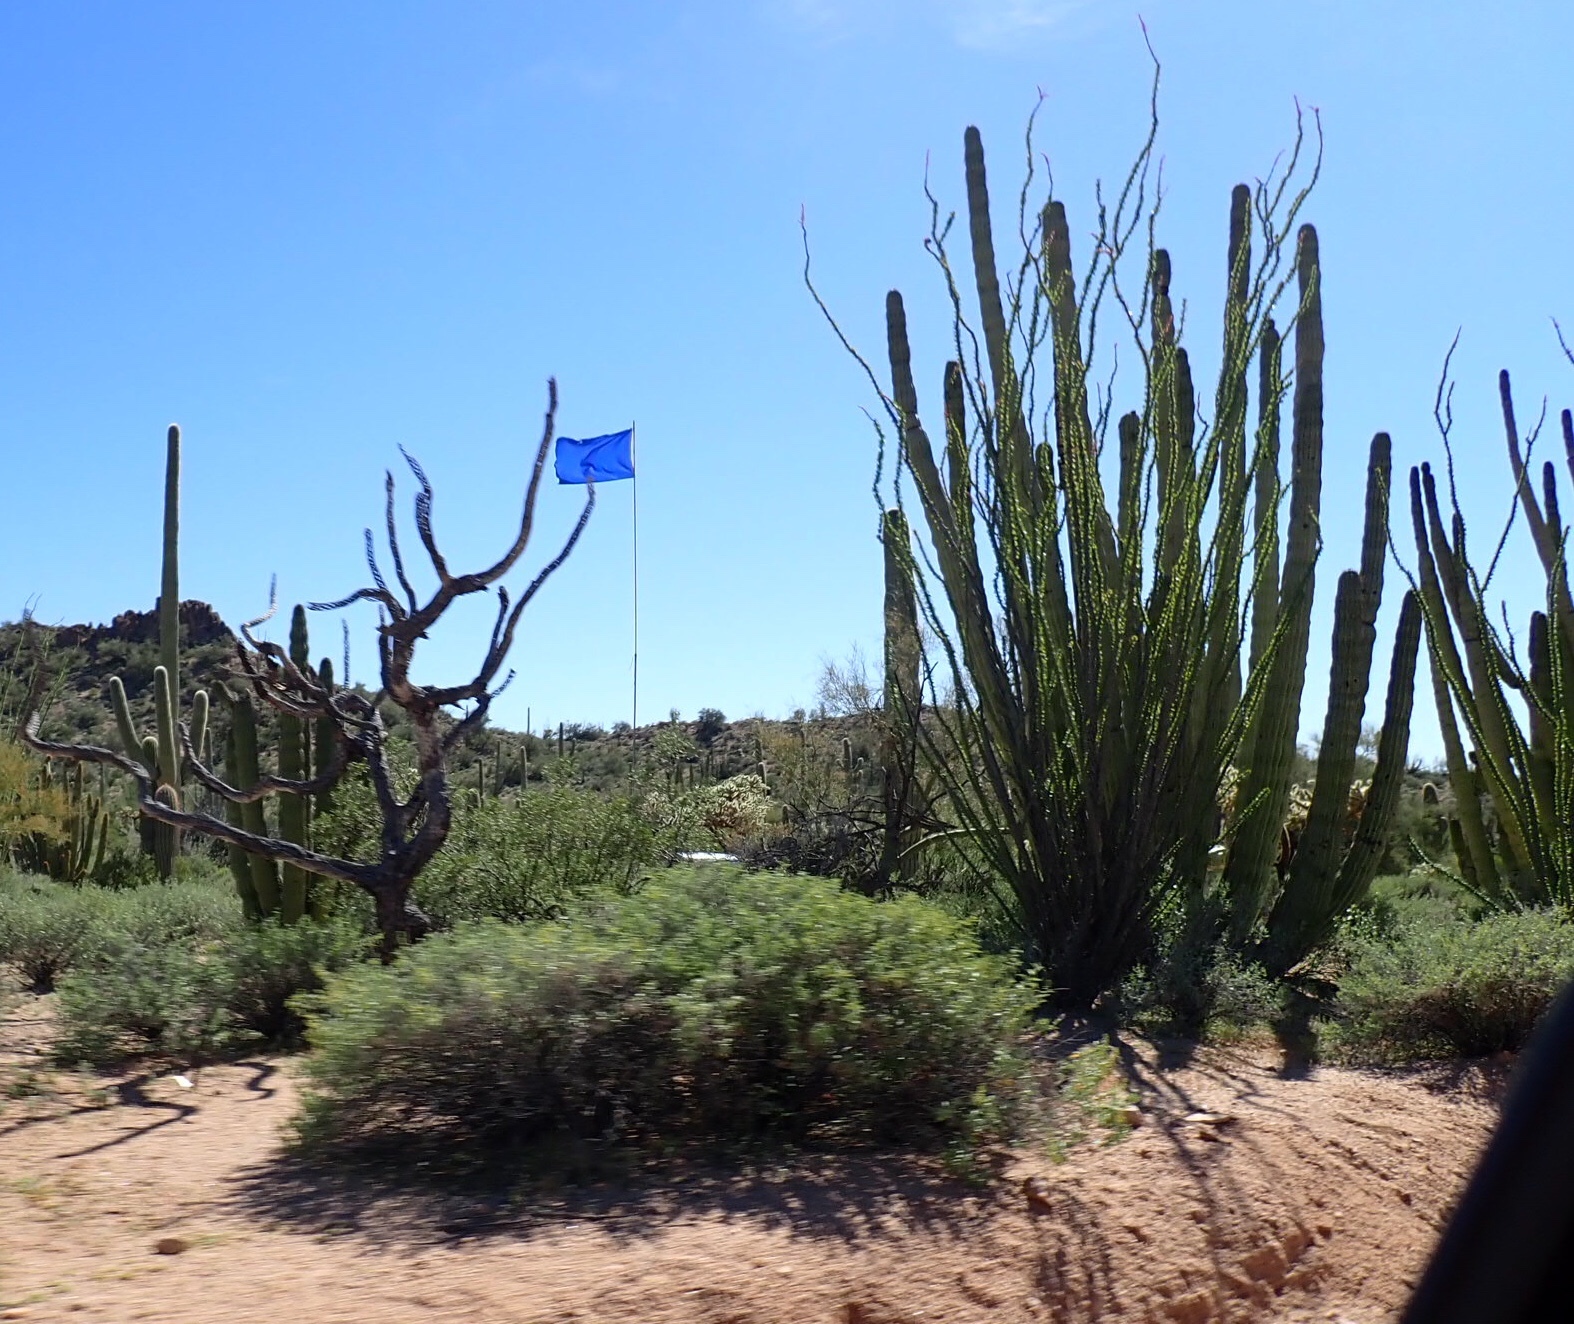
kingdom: Plantae
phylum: Tracheophyta
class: Magnoliopsida
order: Caryophyllales
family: Cactaceae
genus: Stenocereus
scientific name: Stenocereus thurberi
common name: Organ pipe cactus
